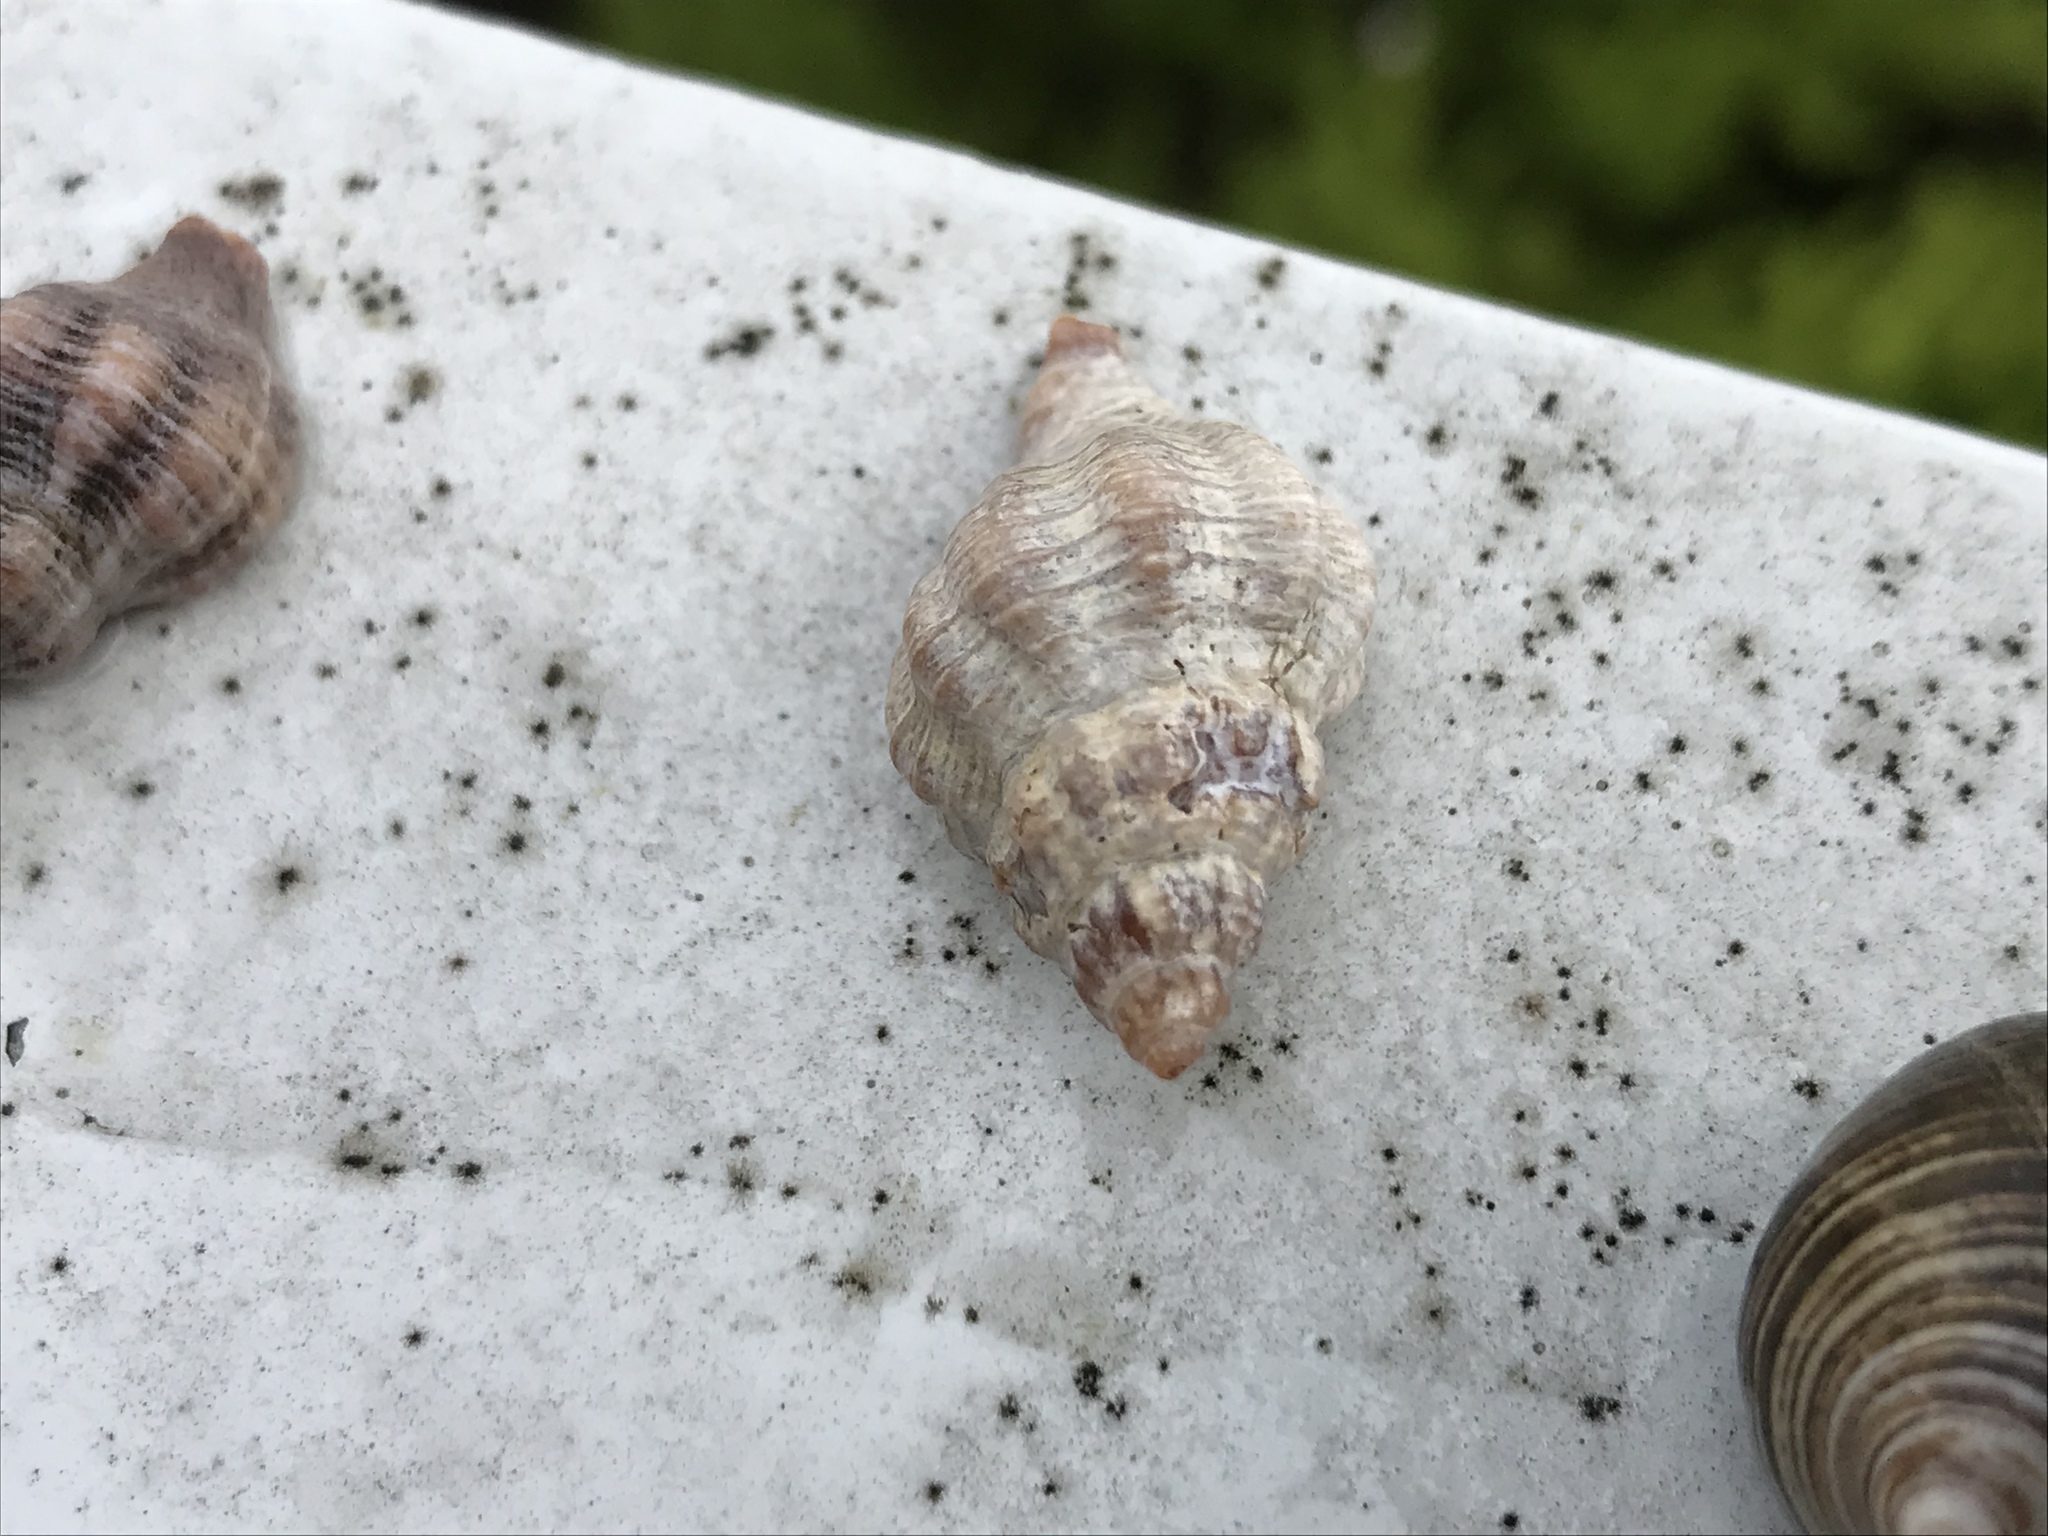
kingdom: Animalia
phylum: Mollusca
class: Gastropoda
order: Neogastropoda
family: Muricidae
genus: Urosalpinx
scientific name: Urosalpinx cinerea
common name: American sting winkle
